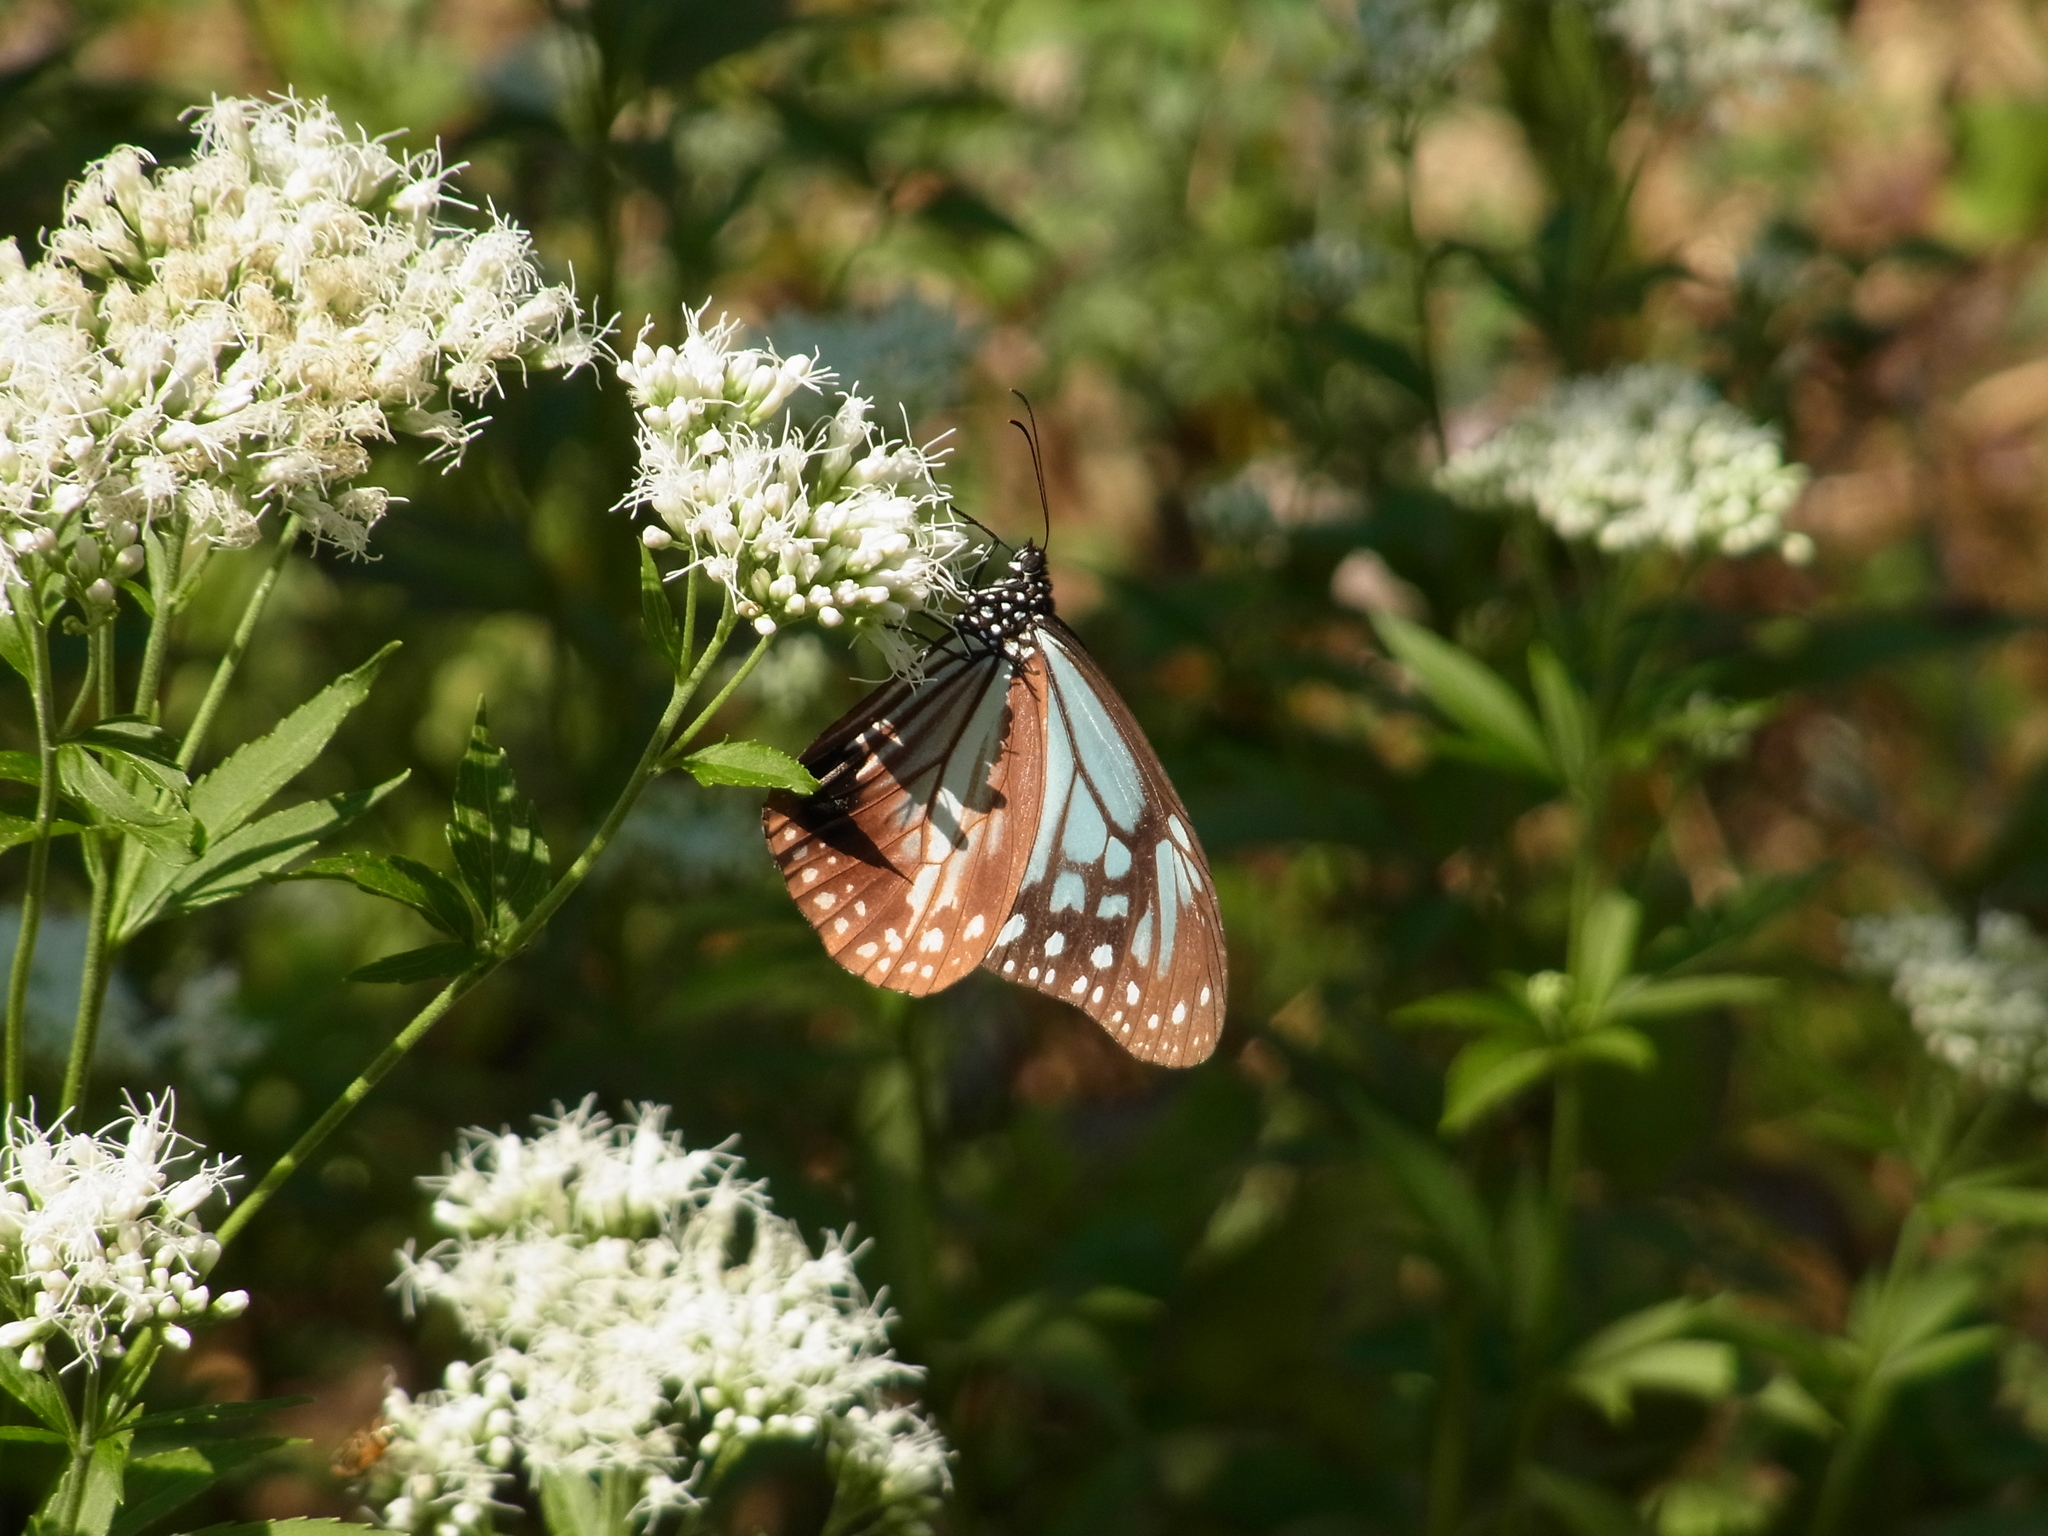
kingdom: Animalia
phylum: Arthropoda
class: Insecta
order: Lepidoptera
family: Nymphalidae
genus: Parantica
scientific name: Parantica sita
